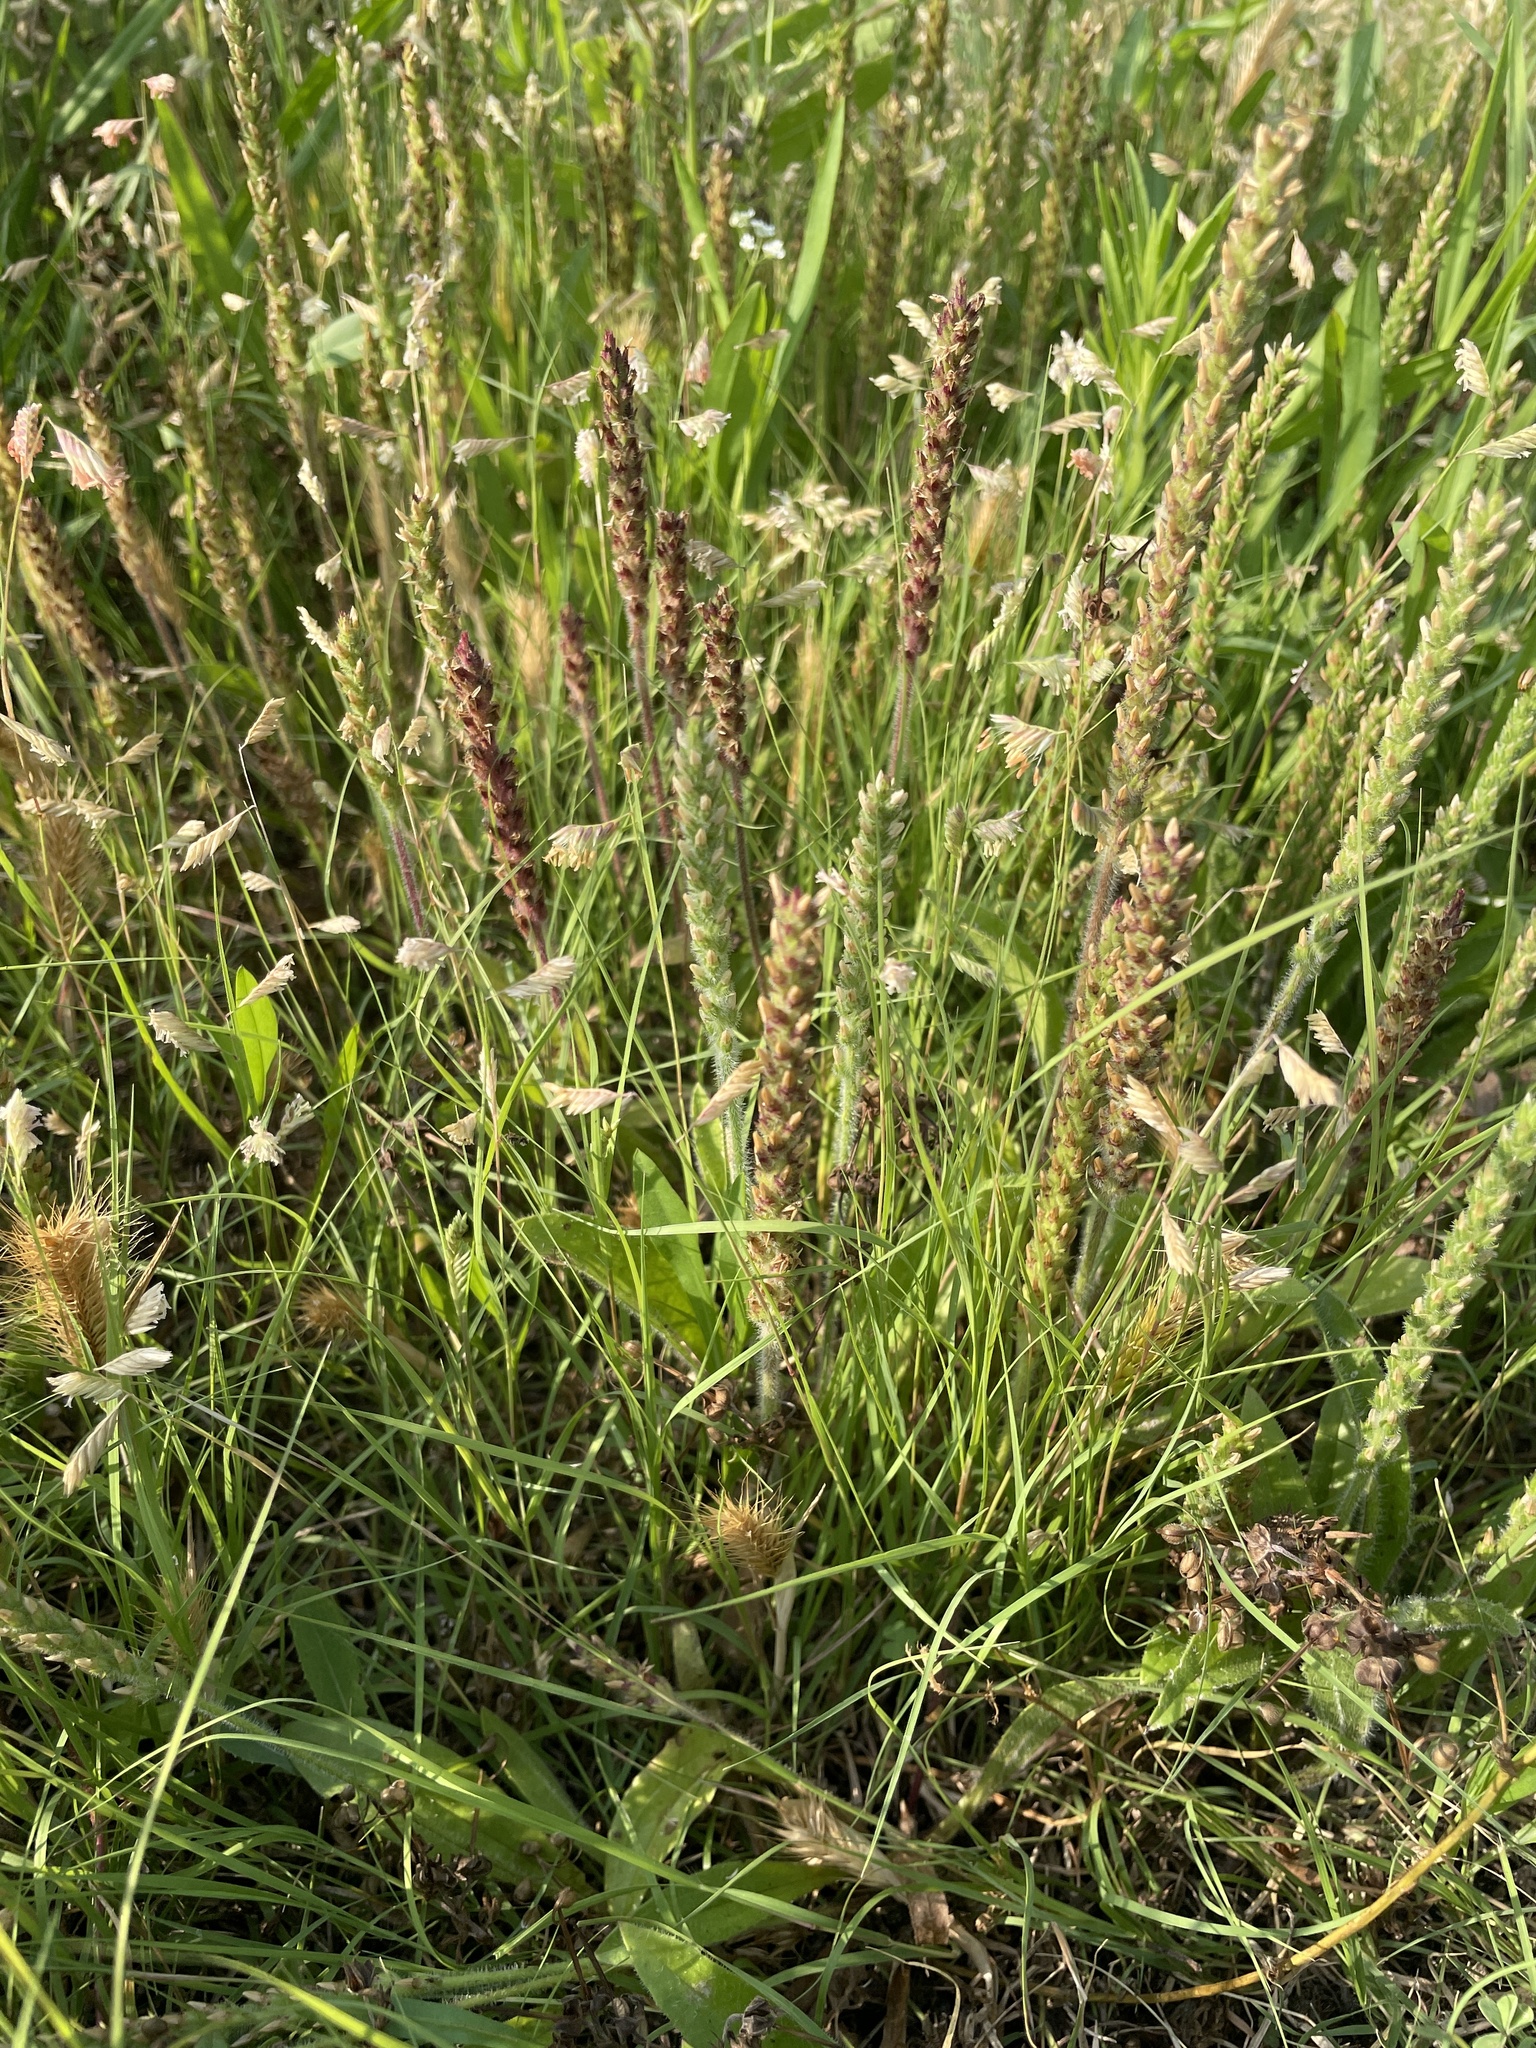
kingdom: Plantae
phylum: Tracheophyta
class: Magnoliopsida
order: Lamiales
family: Plantaginaceae
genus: Plantago
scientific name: Plantago rhodosperma
